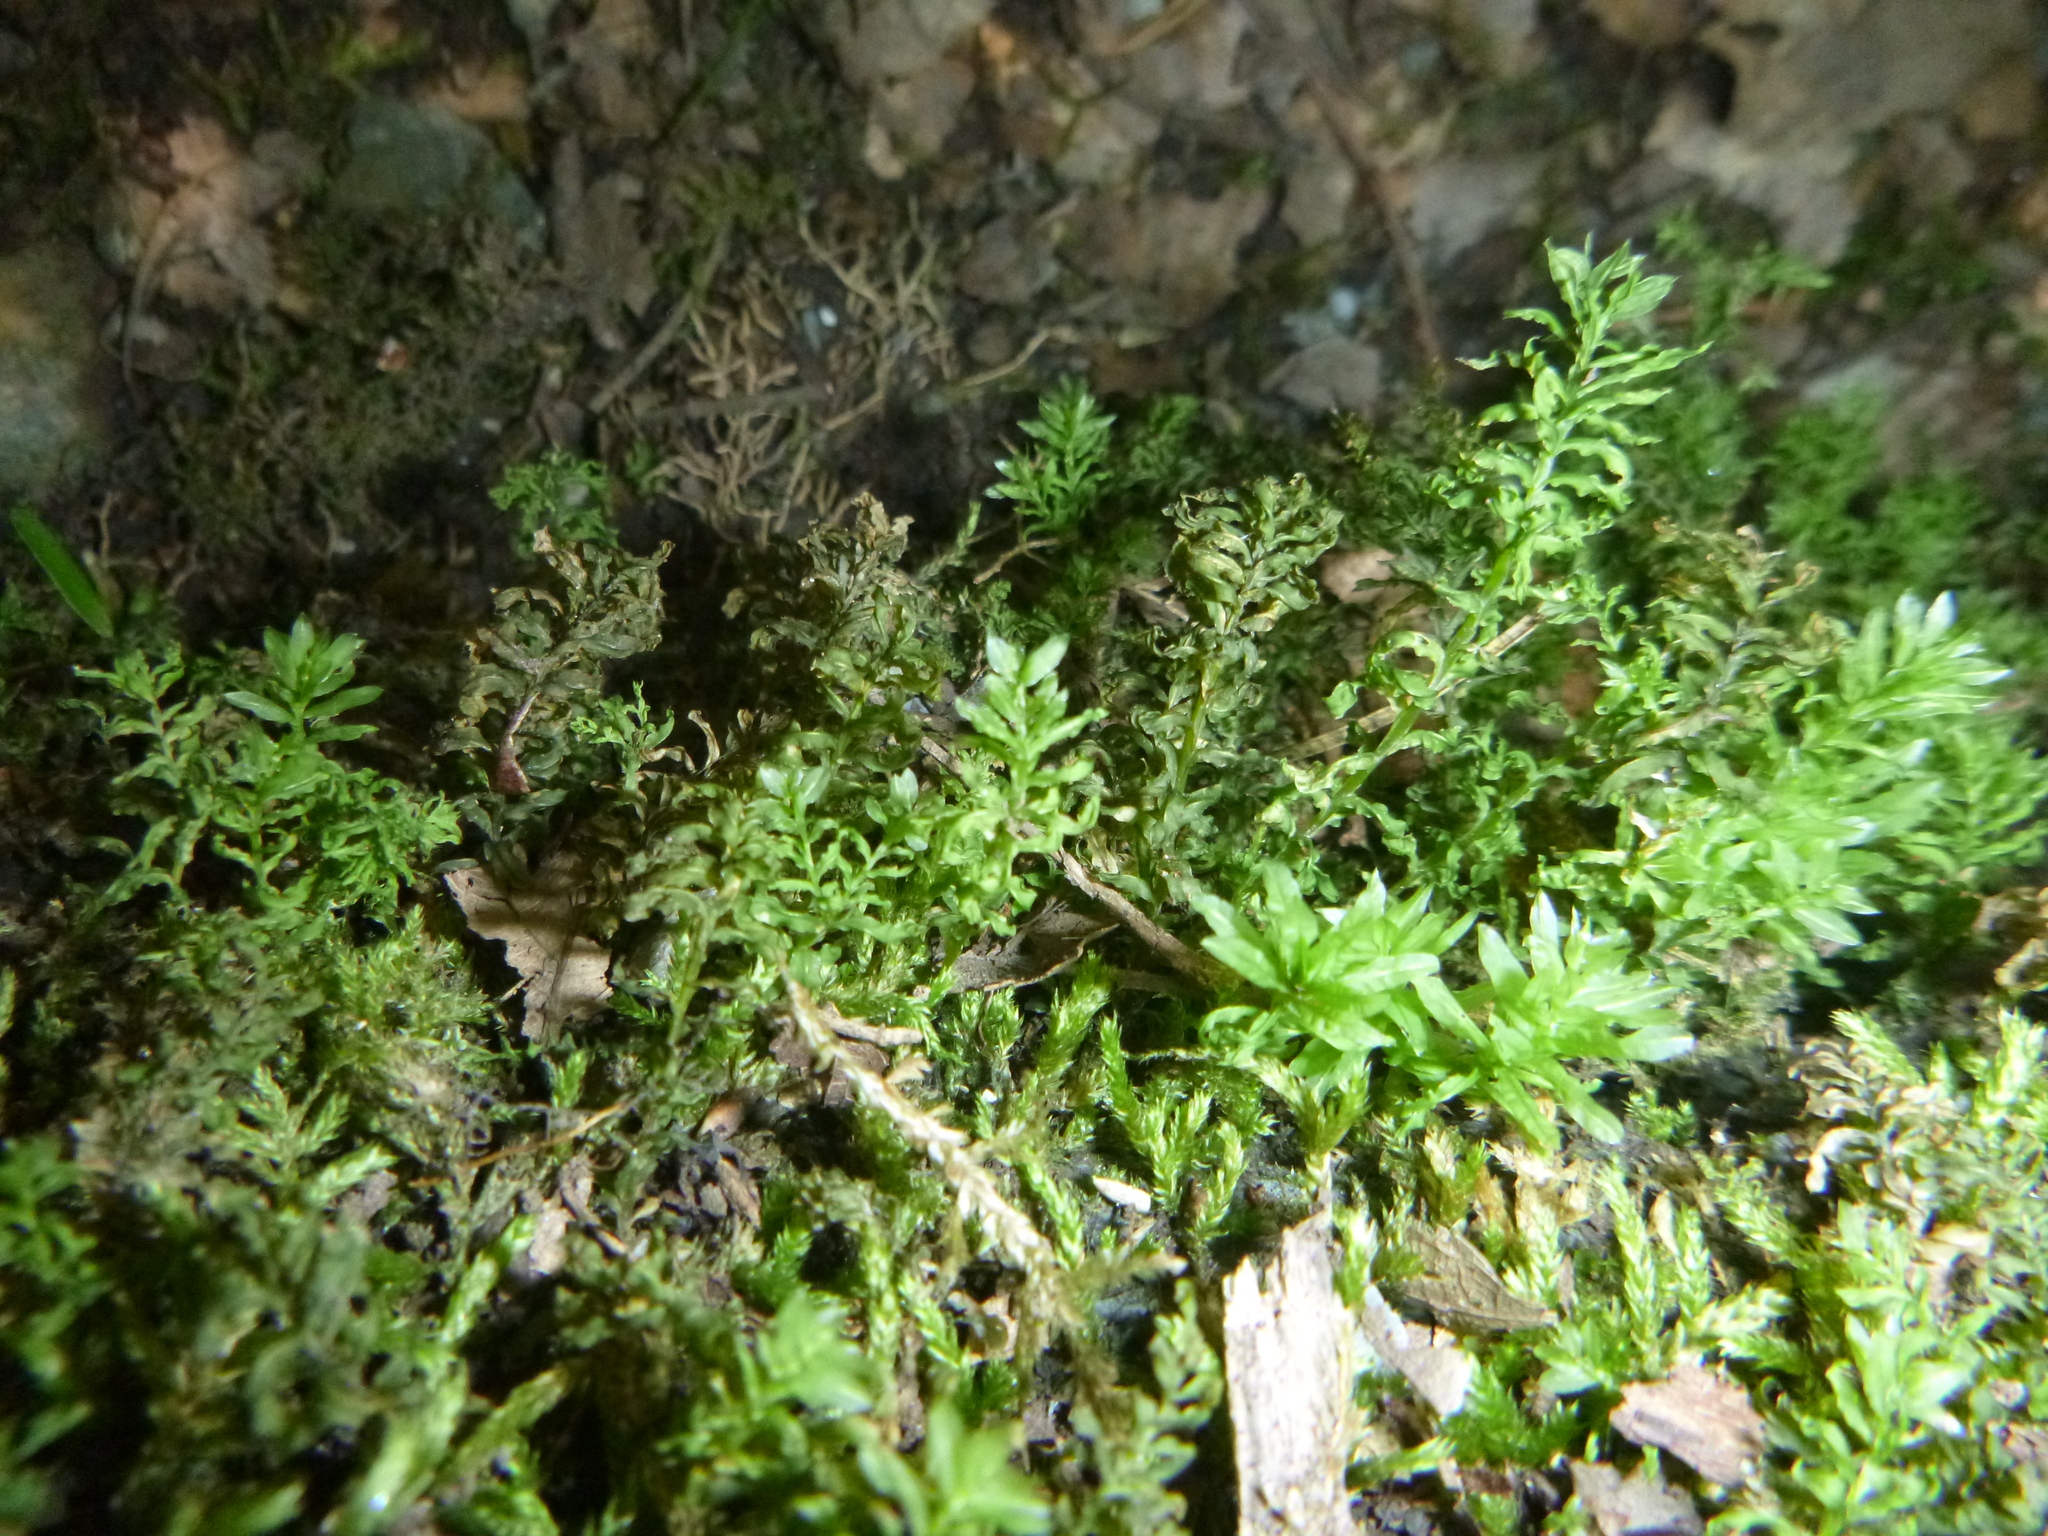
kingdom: Plantae
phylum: Bryophyta
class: Bryopsida
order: Bryales
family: Mniaceae
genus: Plagiomnium
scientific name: Plagiomnium undulatum
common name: Hart's-tongue thyme-moss
